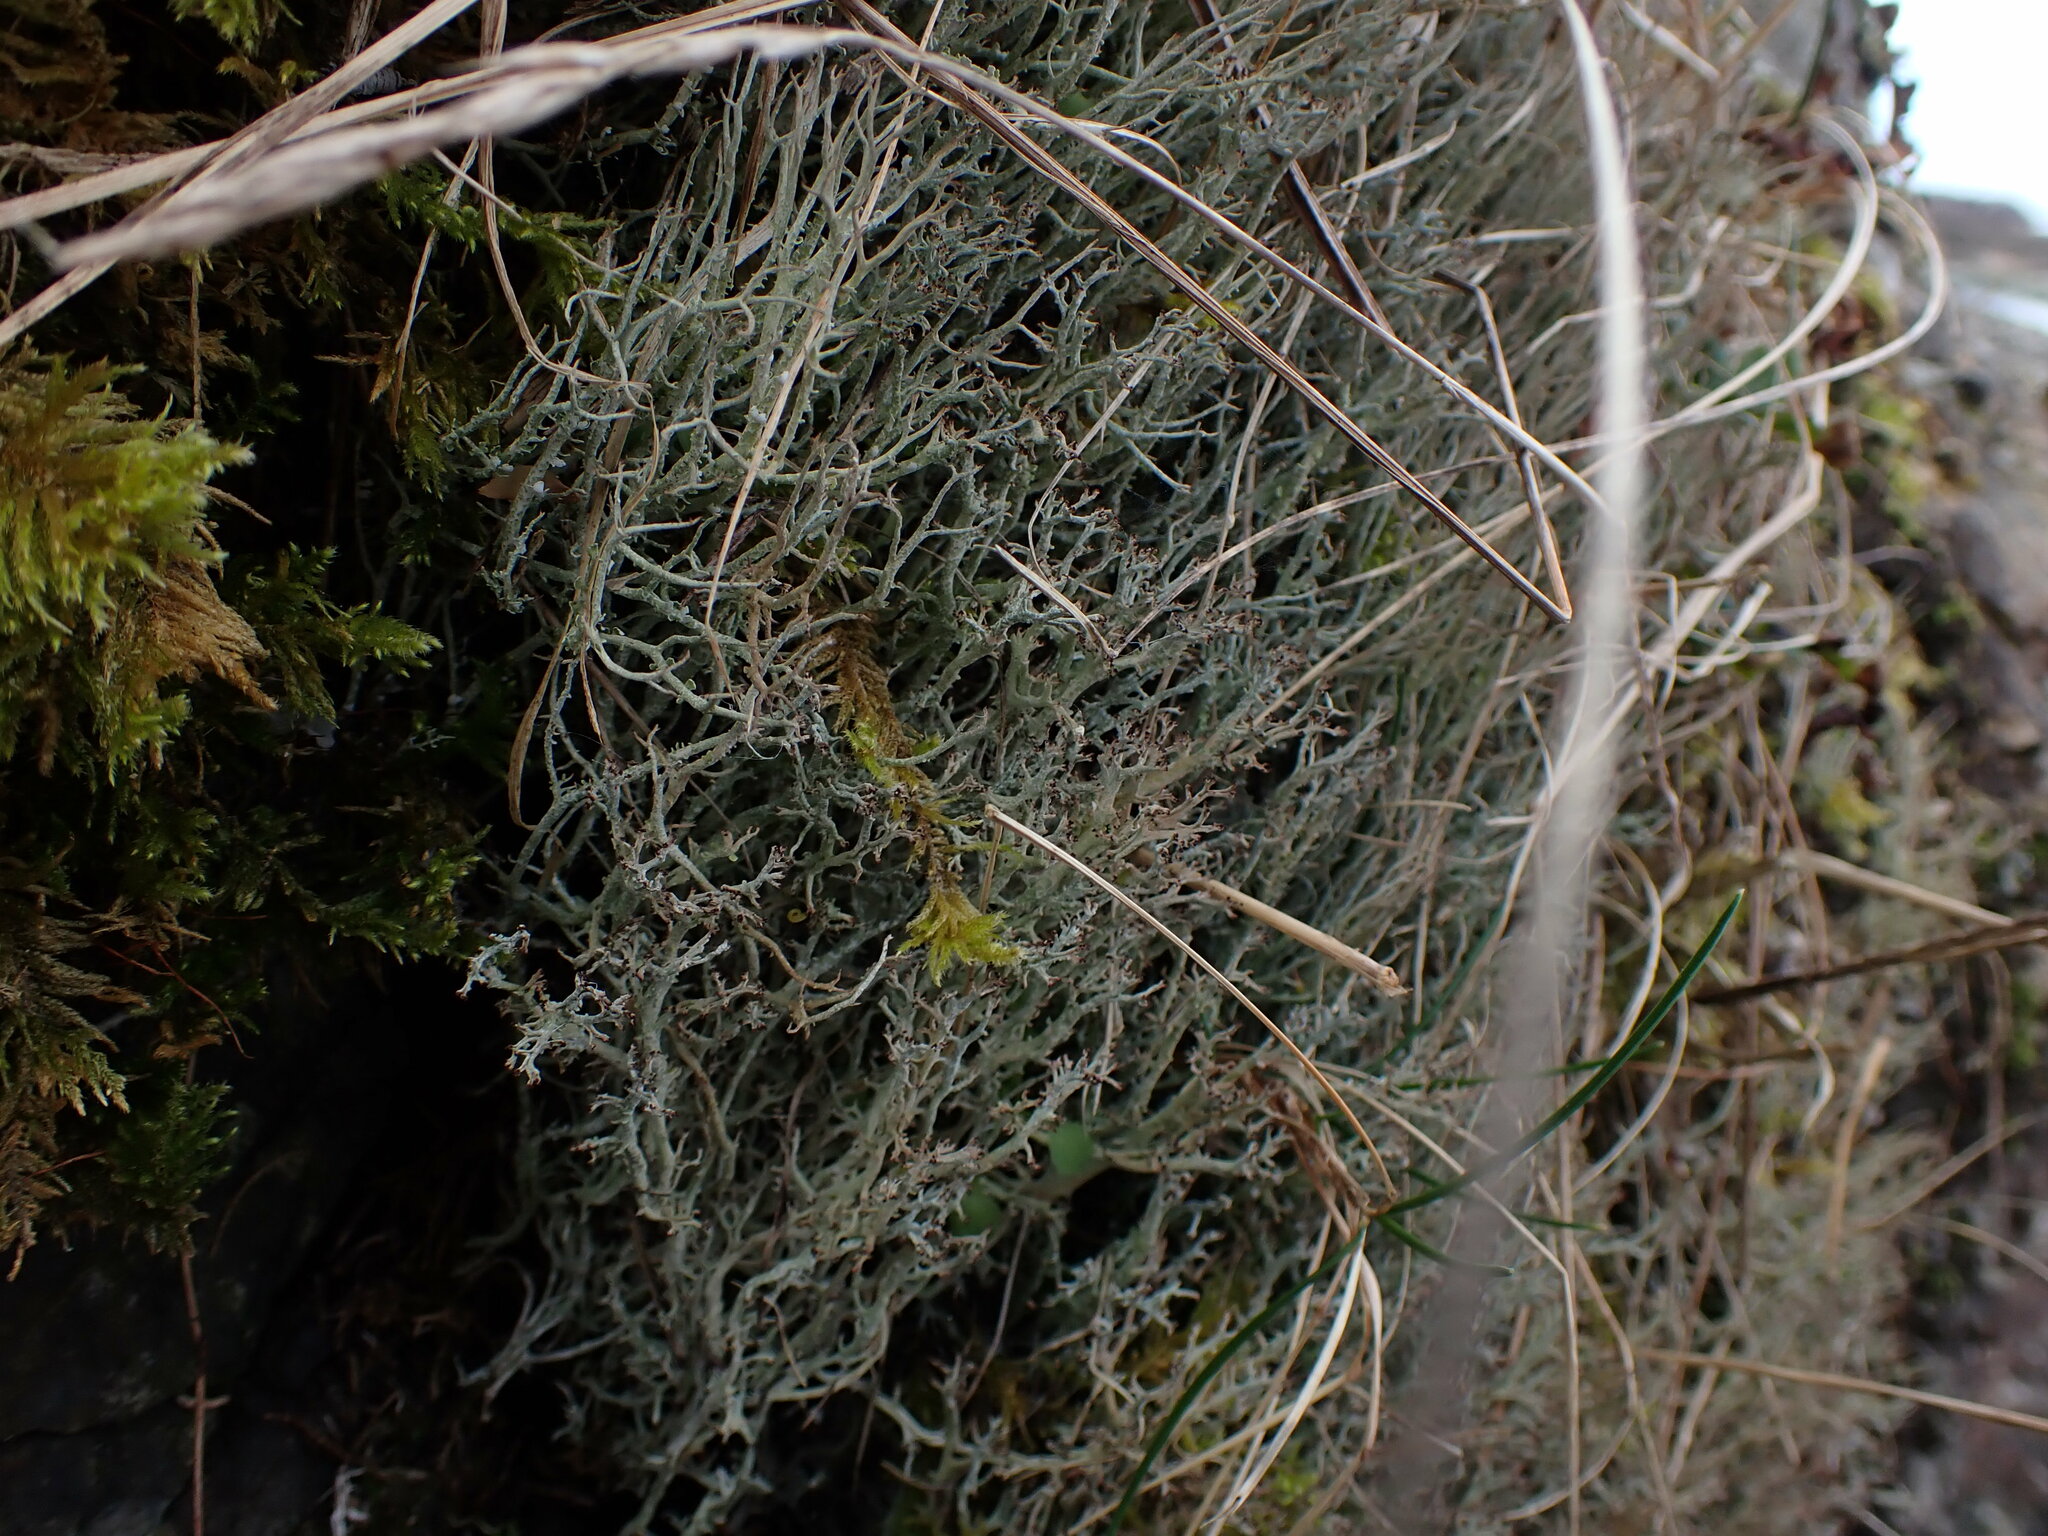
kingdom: Fungi
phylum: Ascomycota
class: Lecanoromycetes
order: Lecanorales
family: Cladoniaceae
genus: Cladonia
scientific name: Cladonia multiformis
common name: Sieve lichen
